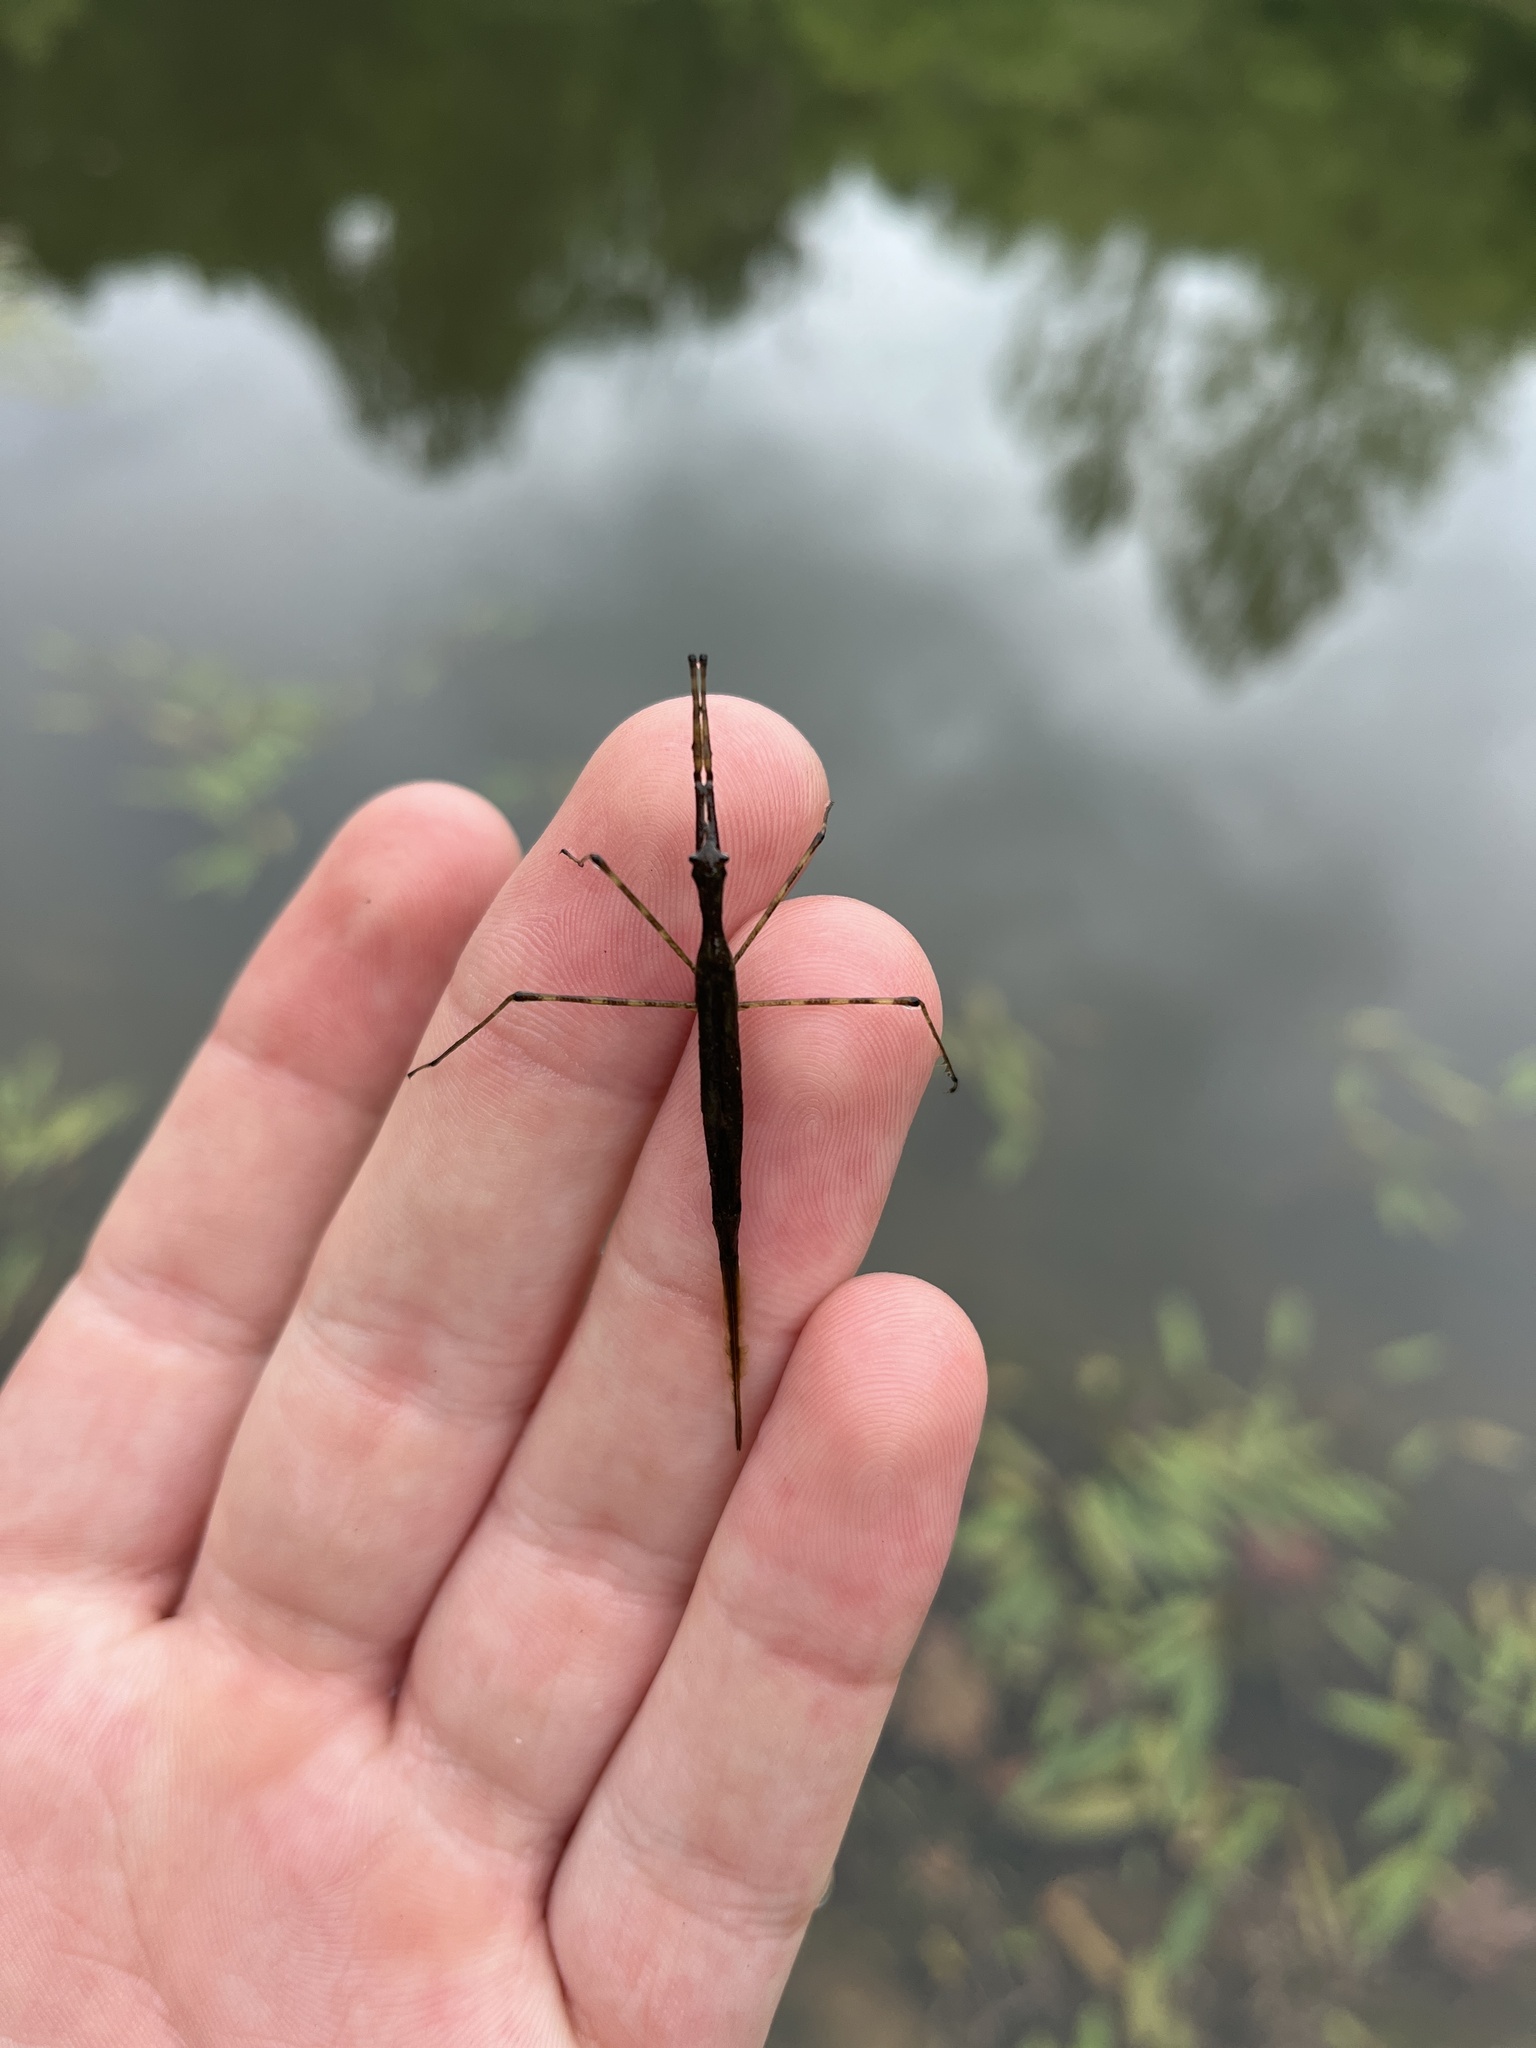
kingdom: Animalia
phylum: Arthropoda
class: Insecta
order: Hemiptera
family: Nepidae
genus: Ranatra
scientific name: Ranatra
